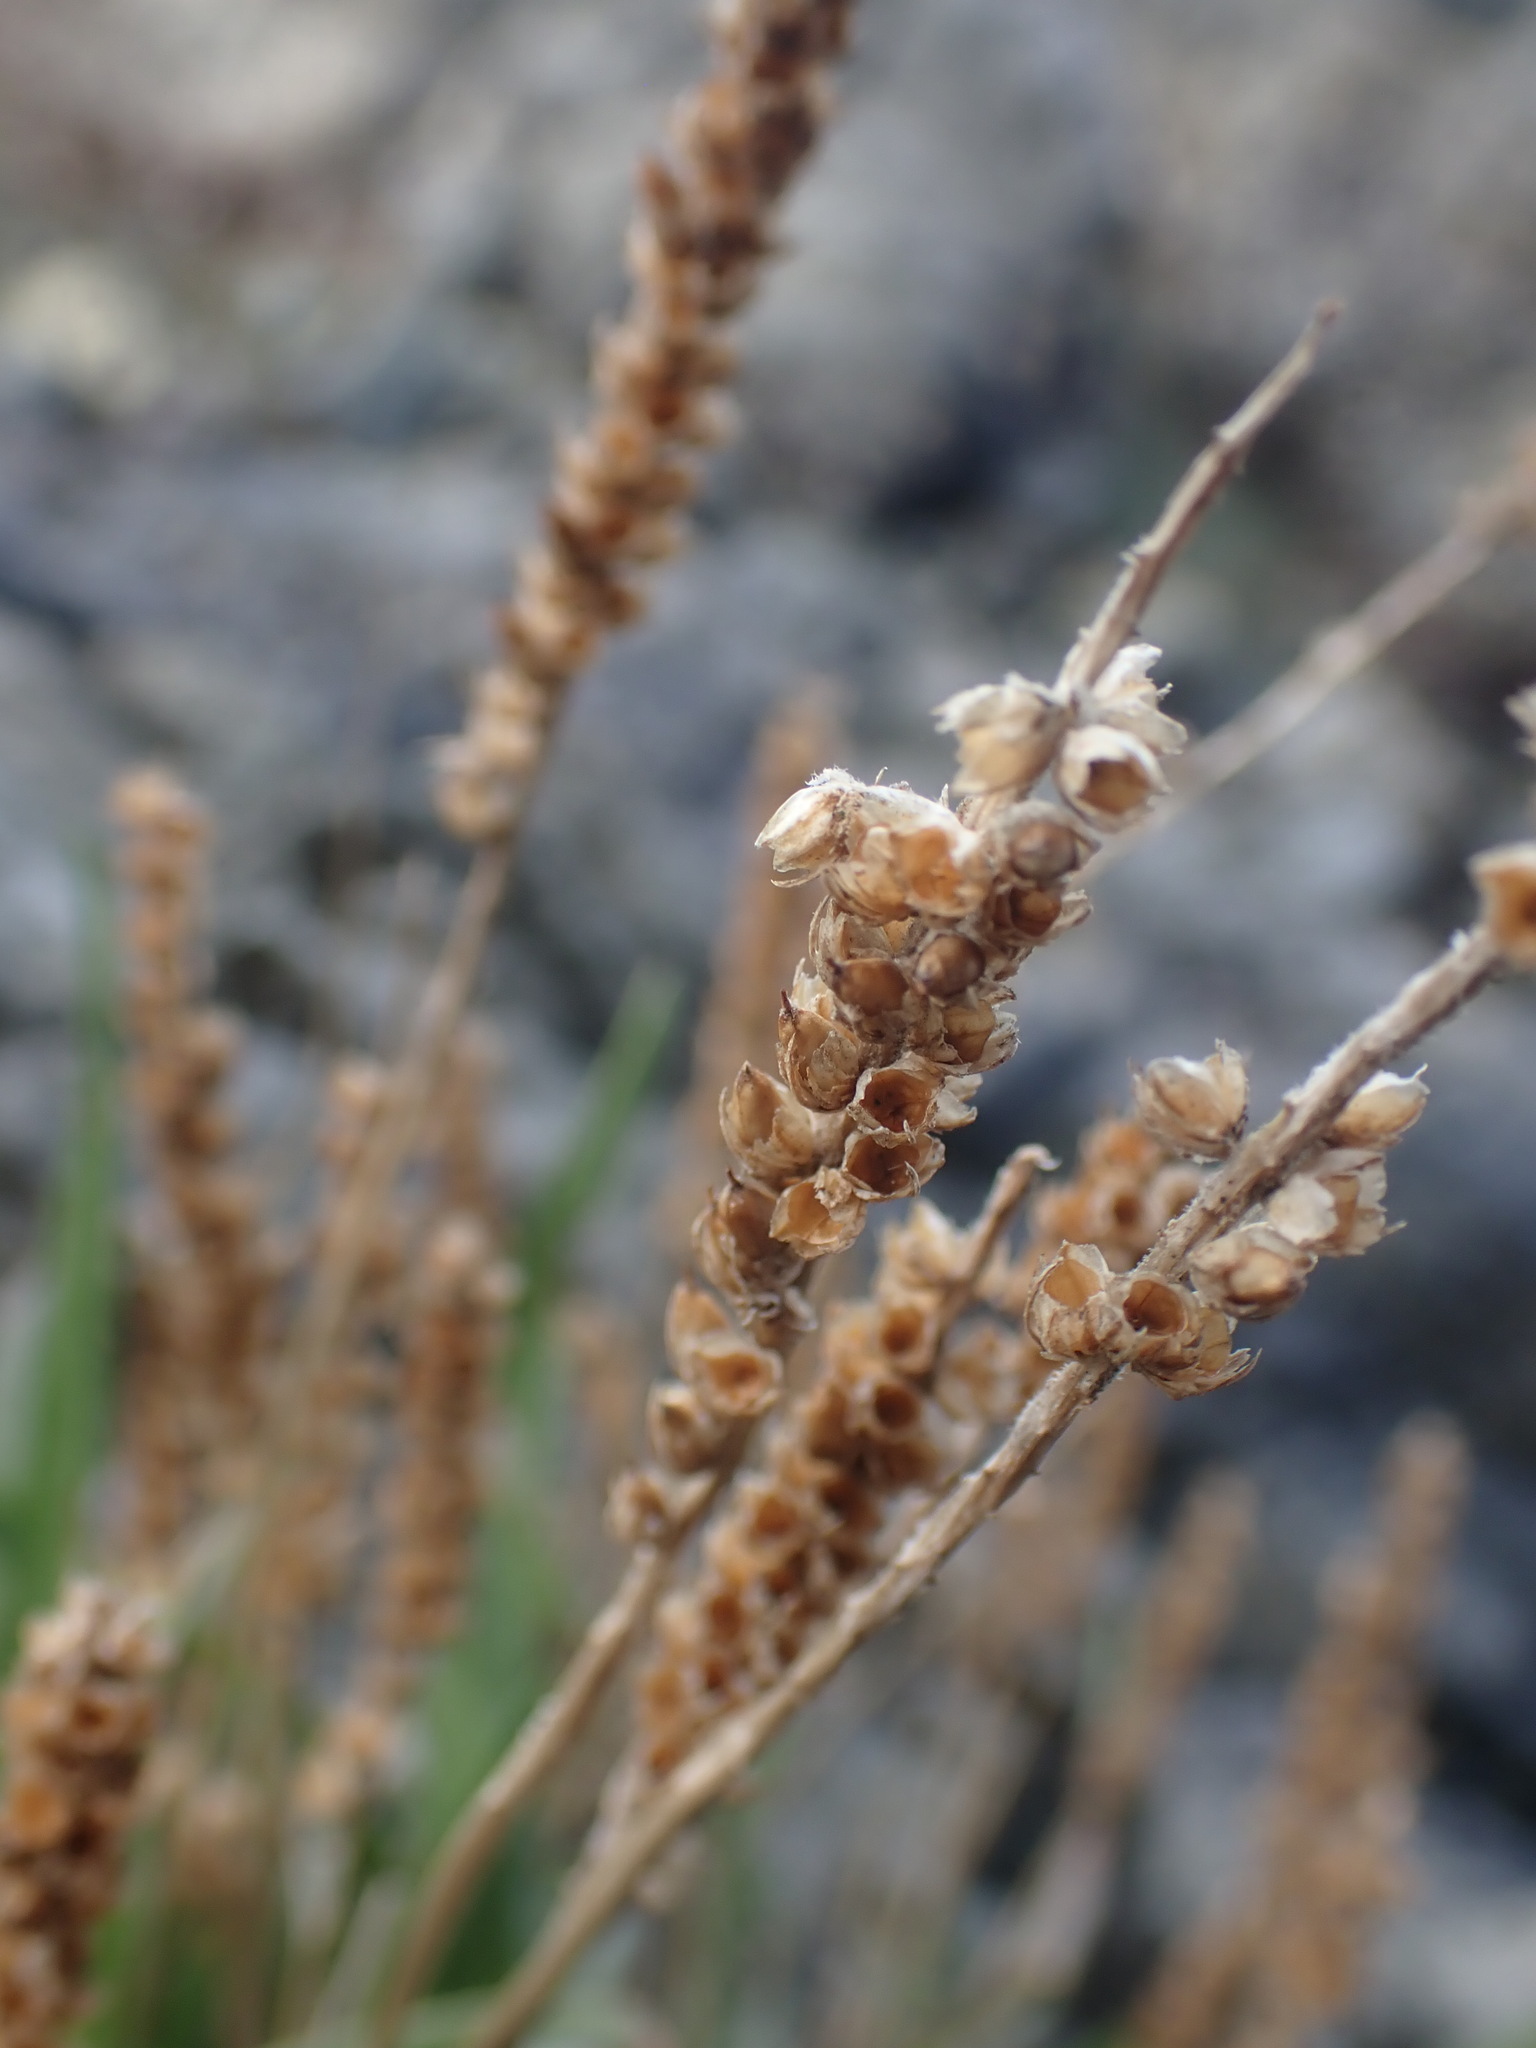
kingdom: Plantae
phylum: Tracheophyta
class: Magnoliopsida
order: Lamiales
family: Plantaginaceae
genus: Plantago
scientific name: Plantago maritima
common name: Sea plantain
